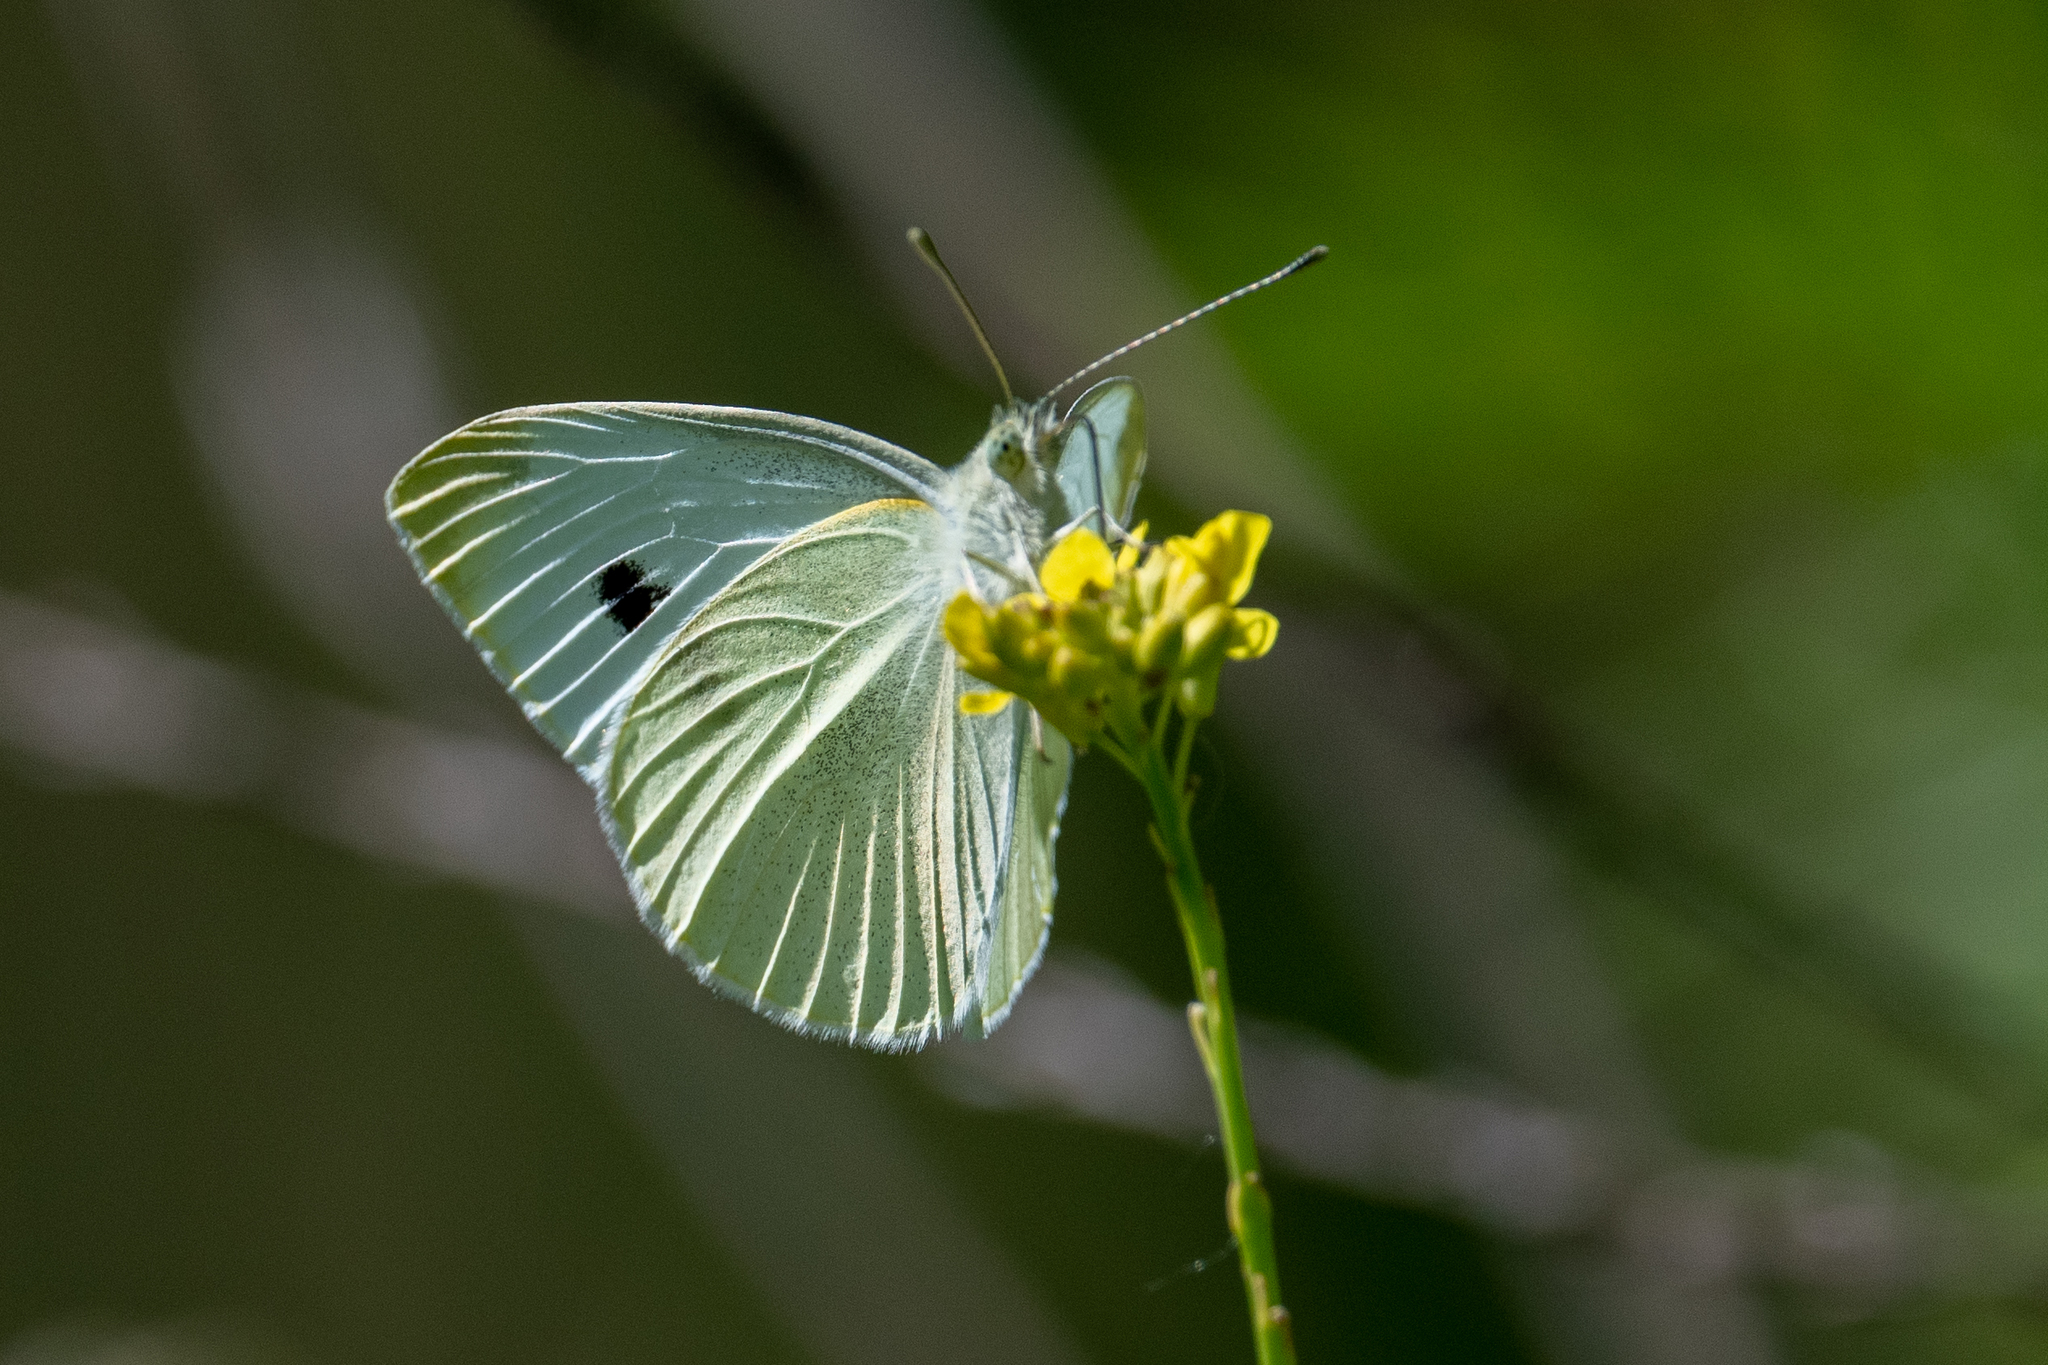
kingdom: Animalia
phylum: Arthropoda
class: Insecta
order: Lepidoptera
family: Pieridae
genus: Pieris
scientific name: Pieris rapae
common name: Small white
